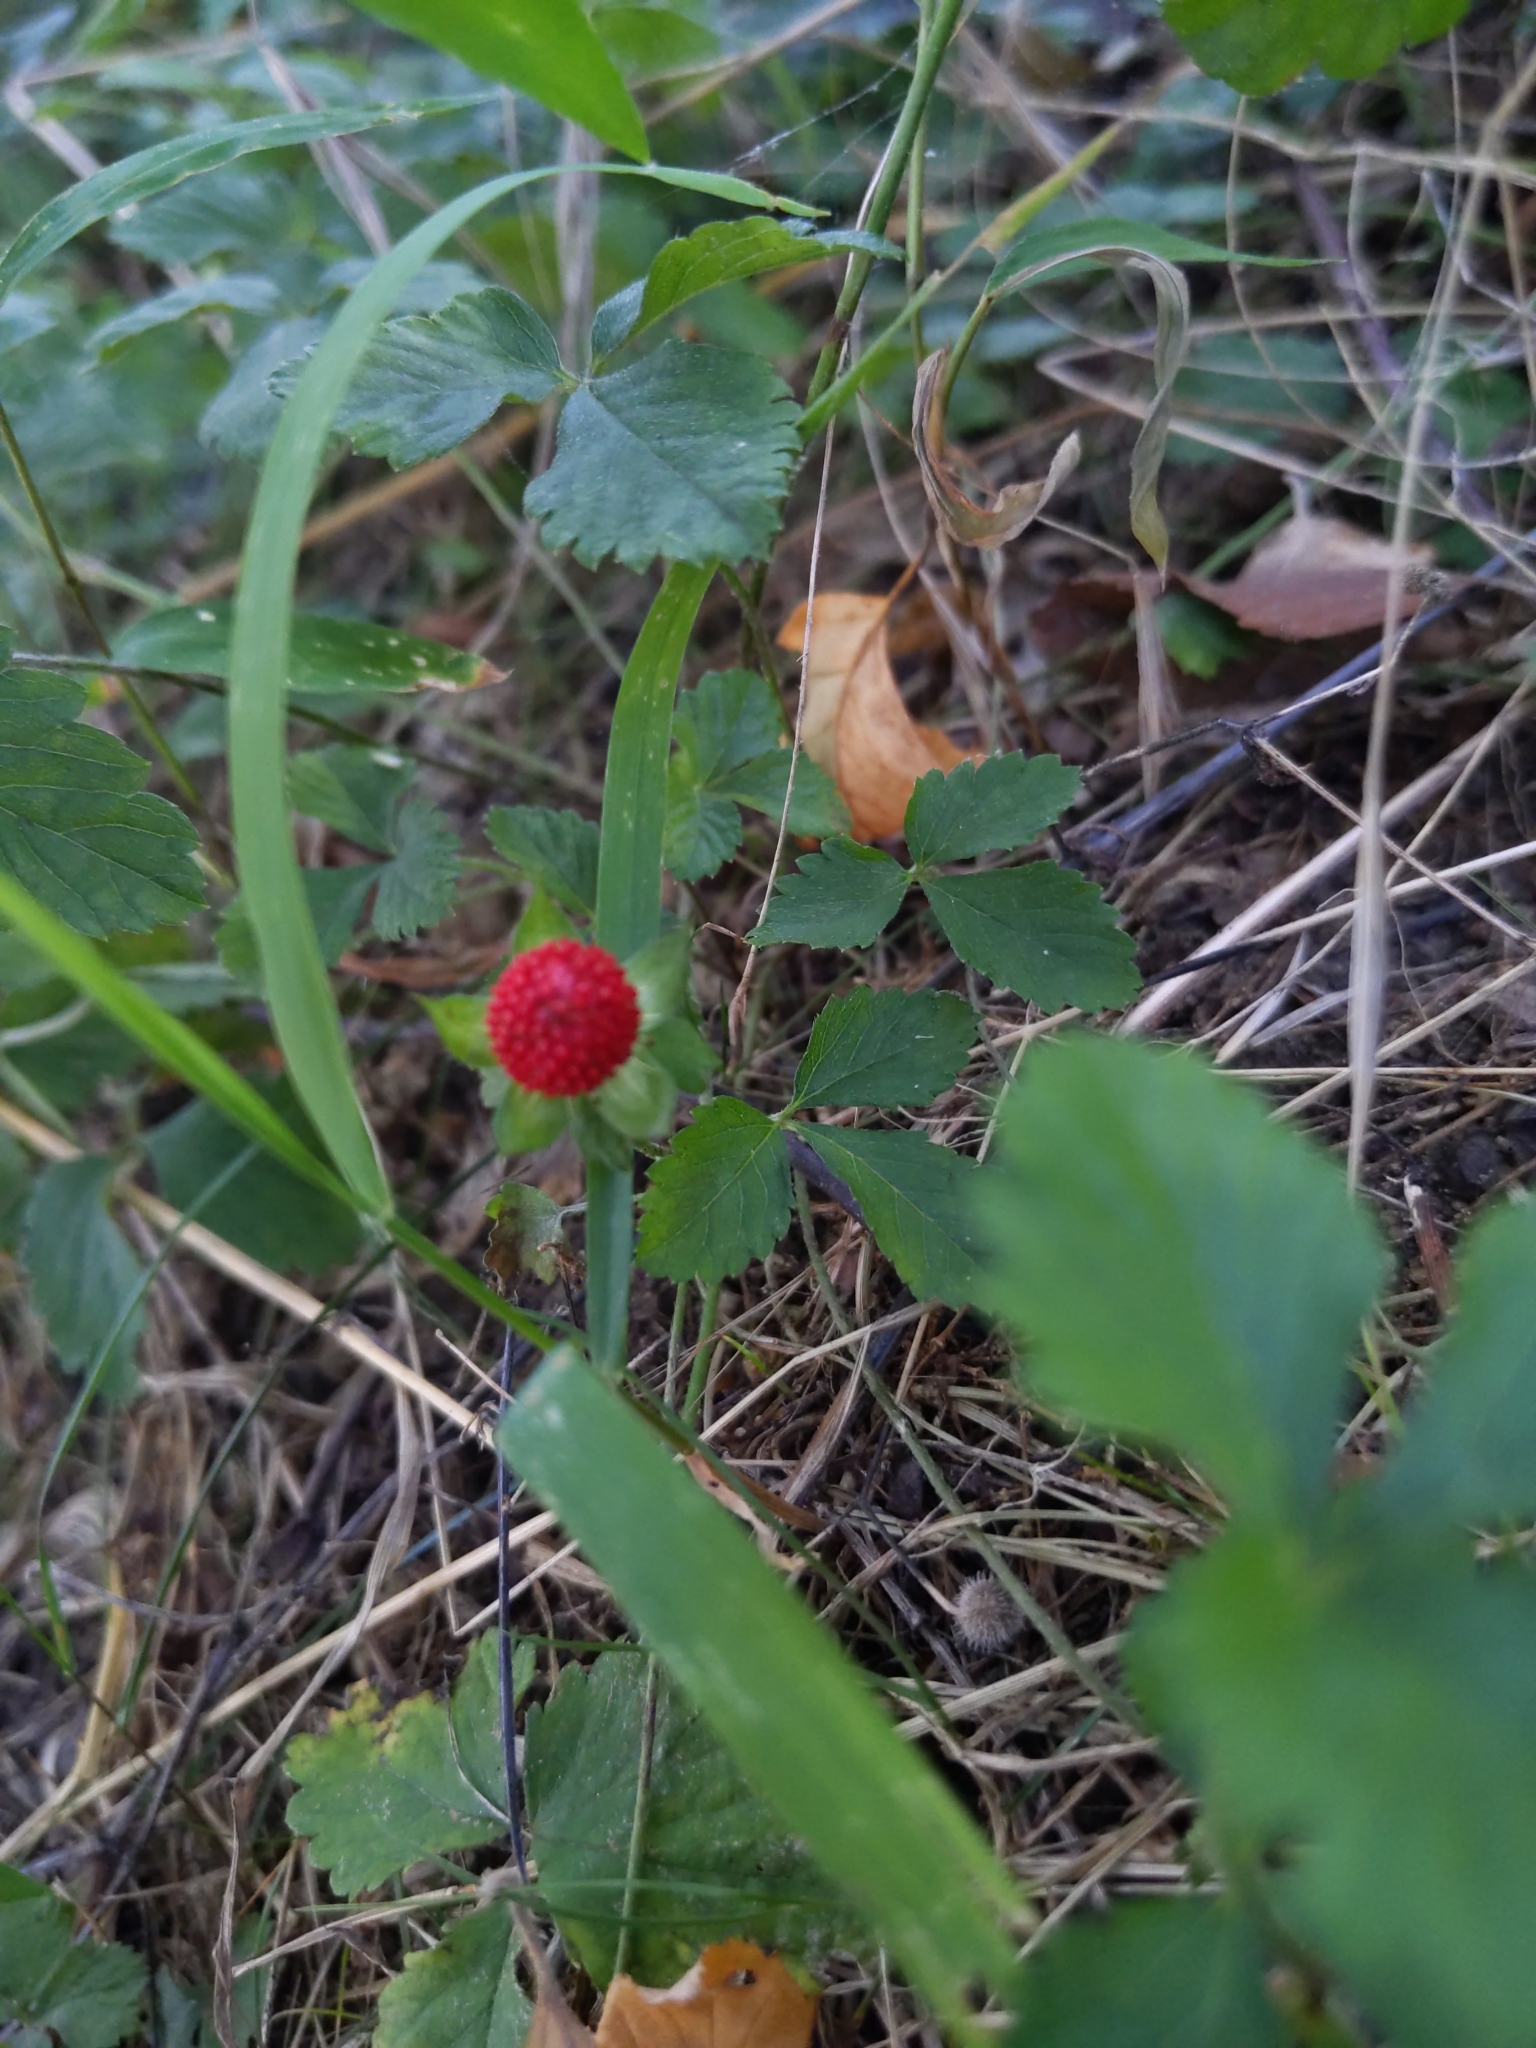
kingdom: Plantae
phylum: Tracheophyta
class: Magnoliopsida
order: Rosales
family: Rosaceae
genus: Potentilla
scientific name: Potentilla indica
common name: Yellow-flowered strawberry
